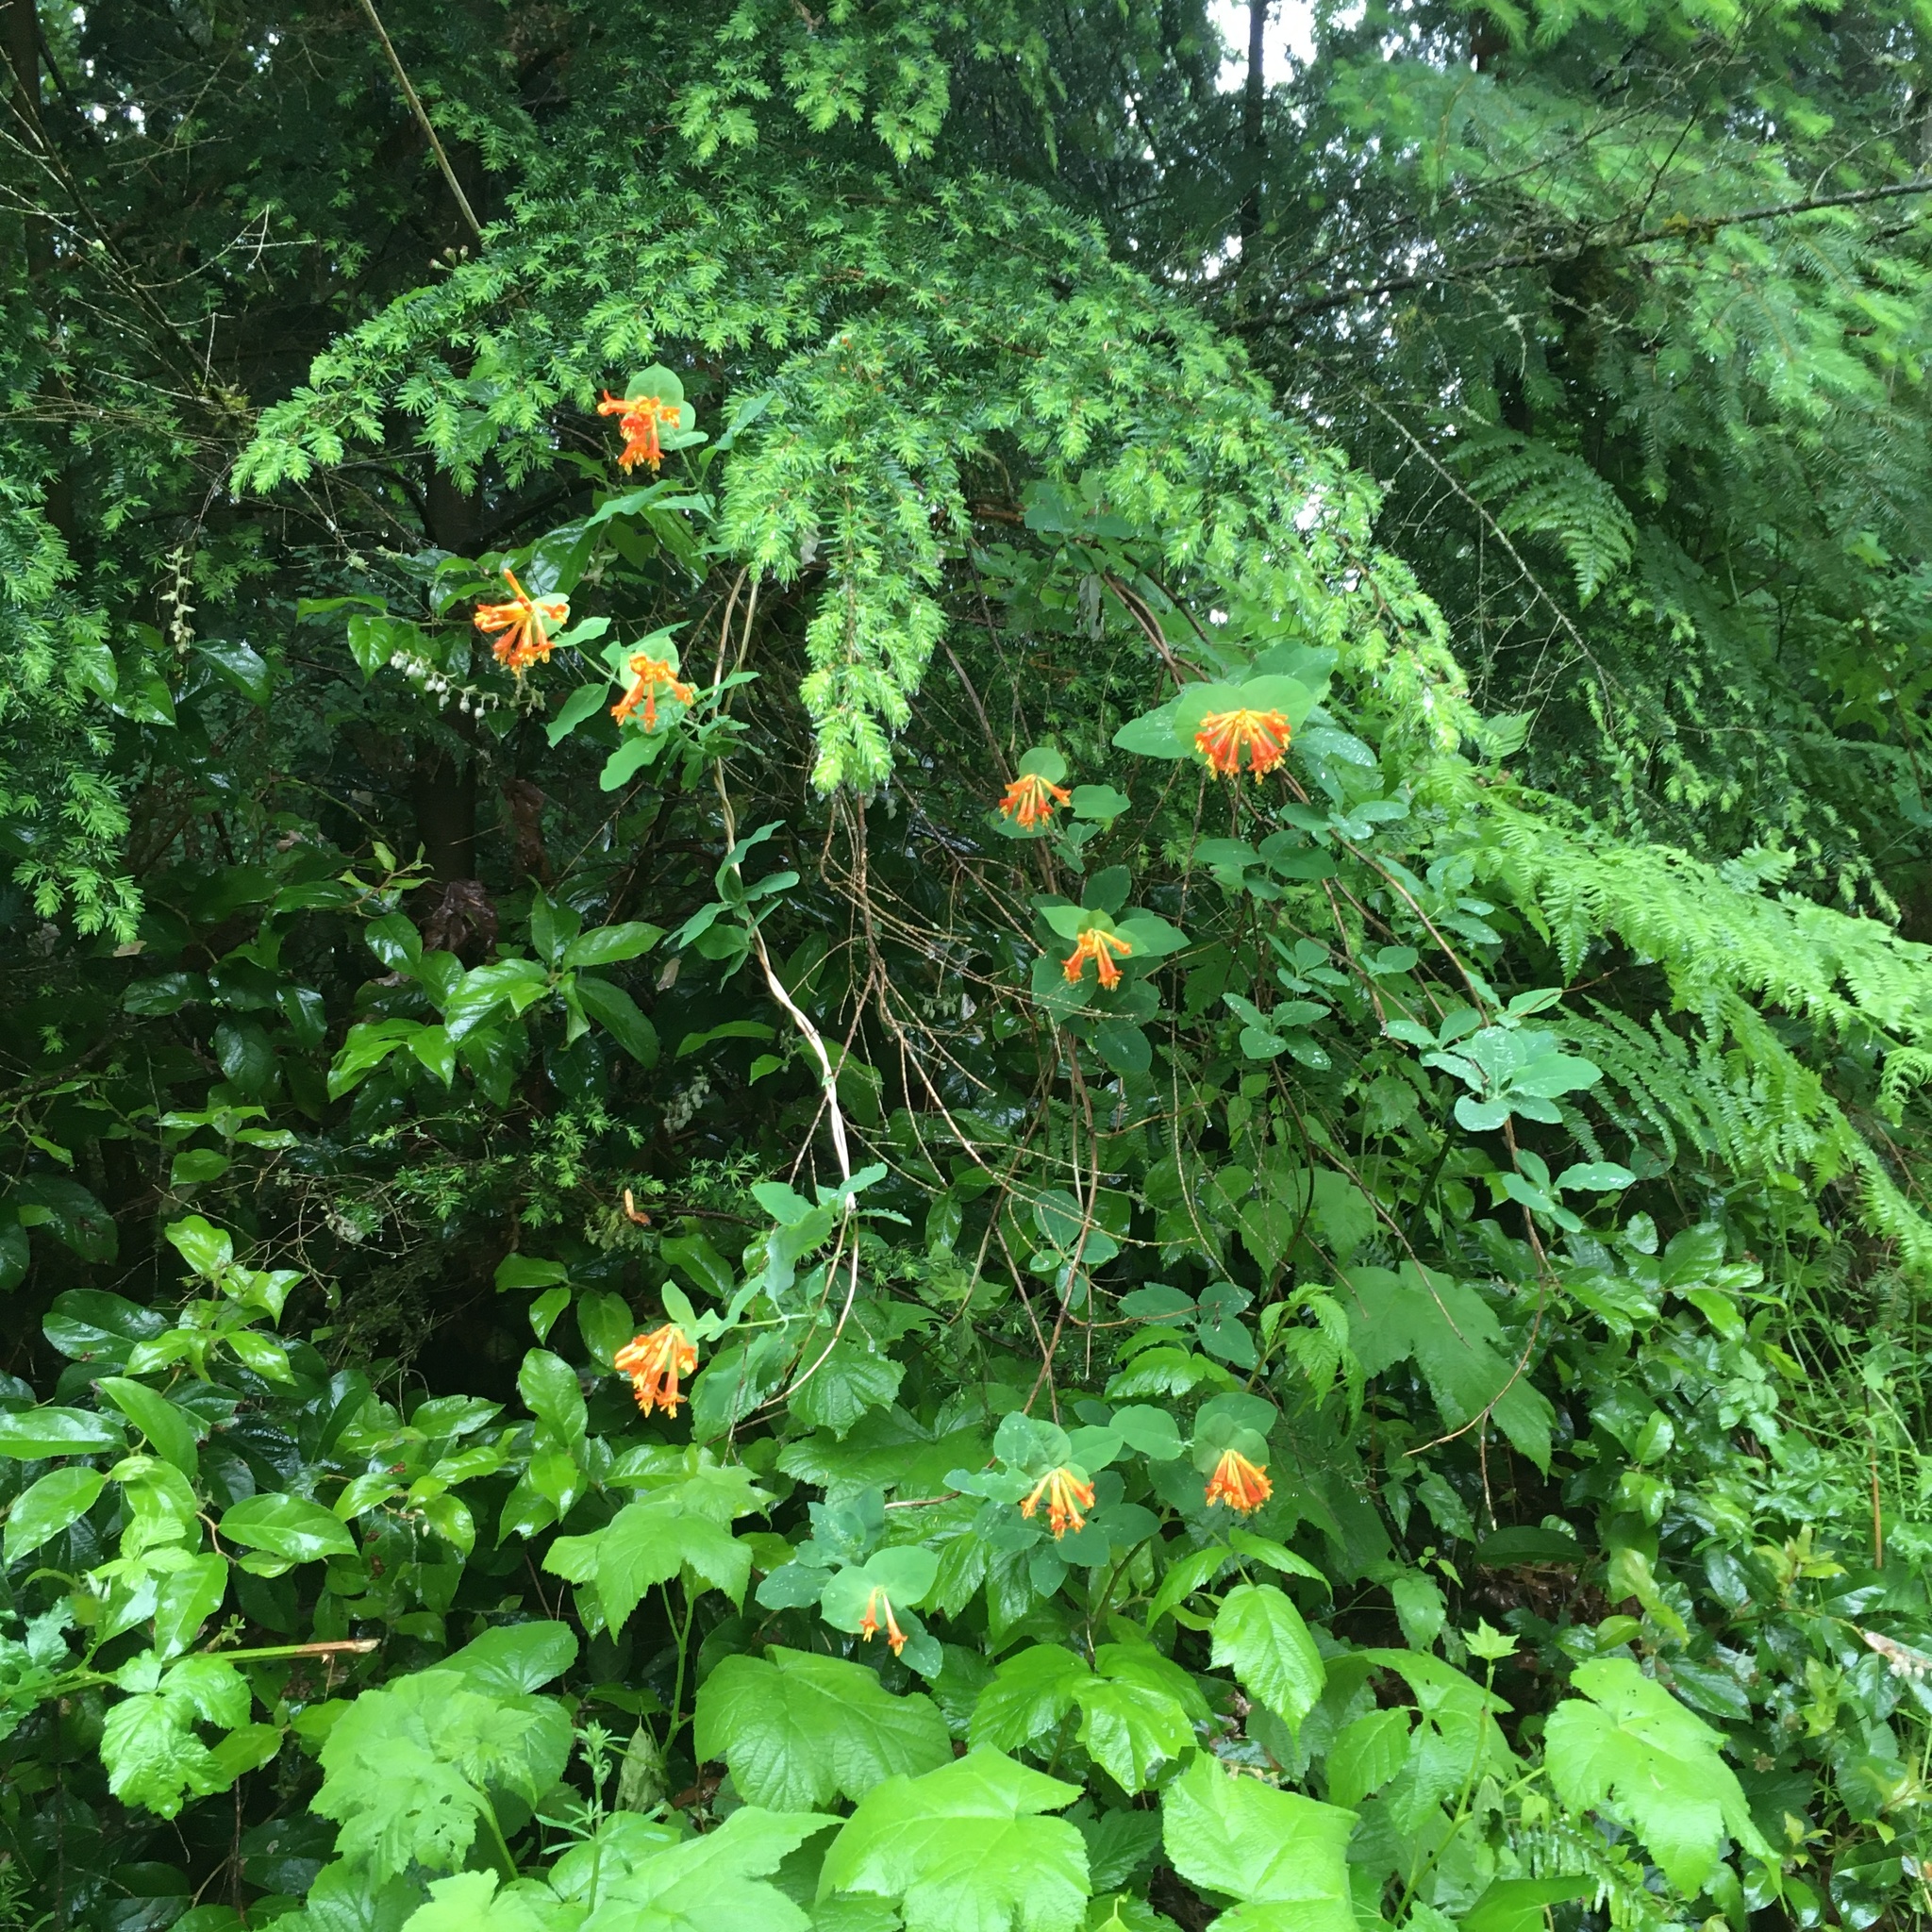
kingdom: Plantae
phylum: Tracheophyta
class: Magnoliopsida
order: Dipsacales
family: Caprifoliaceae
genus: Lonicera
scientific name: Lonicera ciliosa
